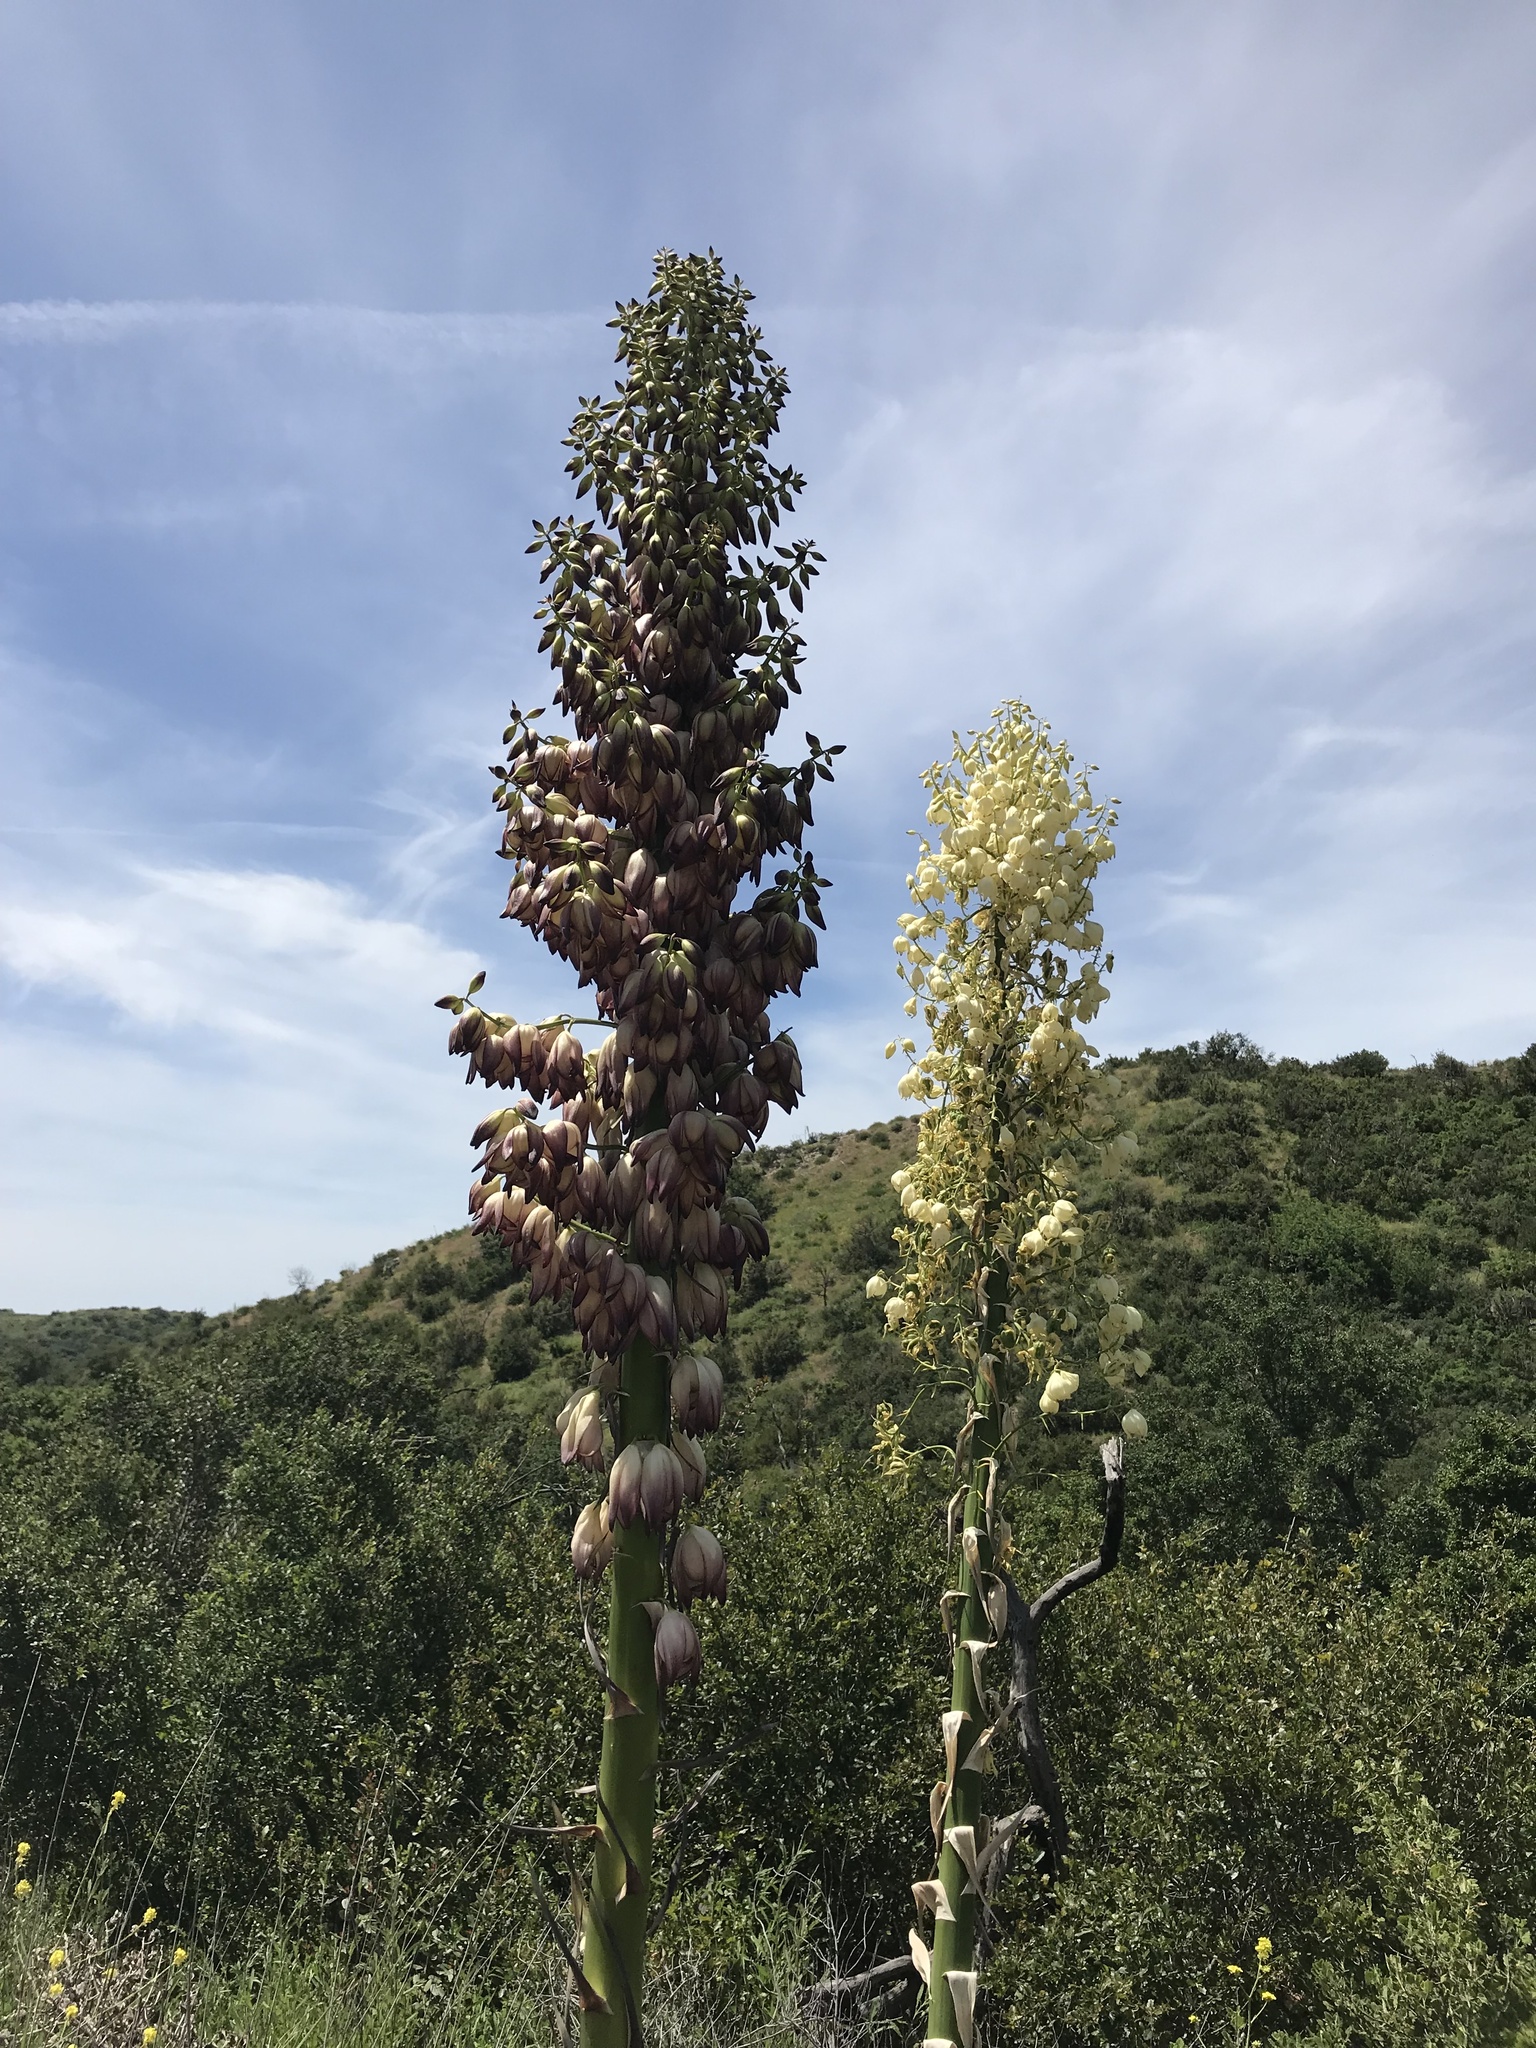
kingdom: Plantae
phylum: Tracheophyta
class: Liliopsida
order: Asparagales
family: Asparagaceae
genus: Hesperoyucca
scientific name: Hesperoyucca whipplei
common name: Our lord's-candle
